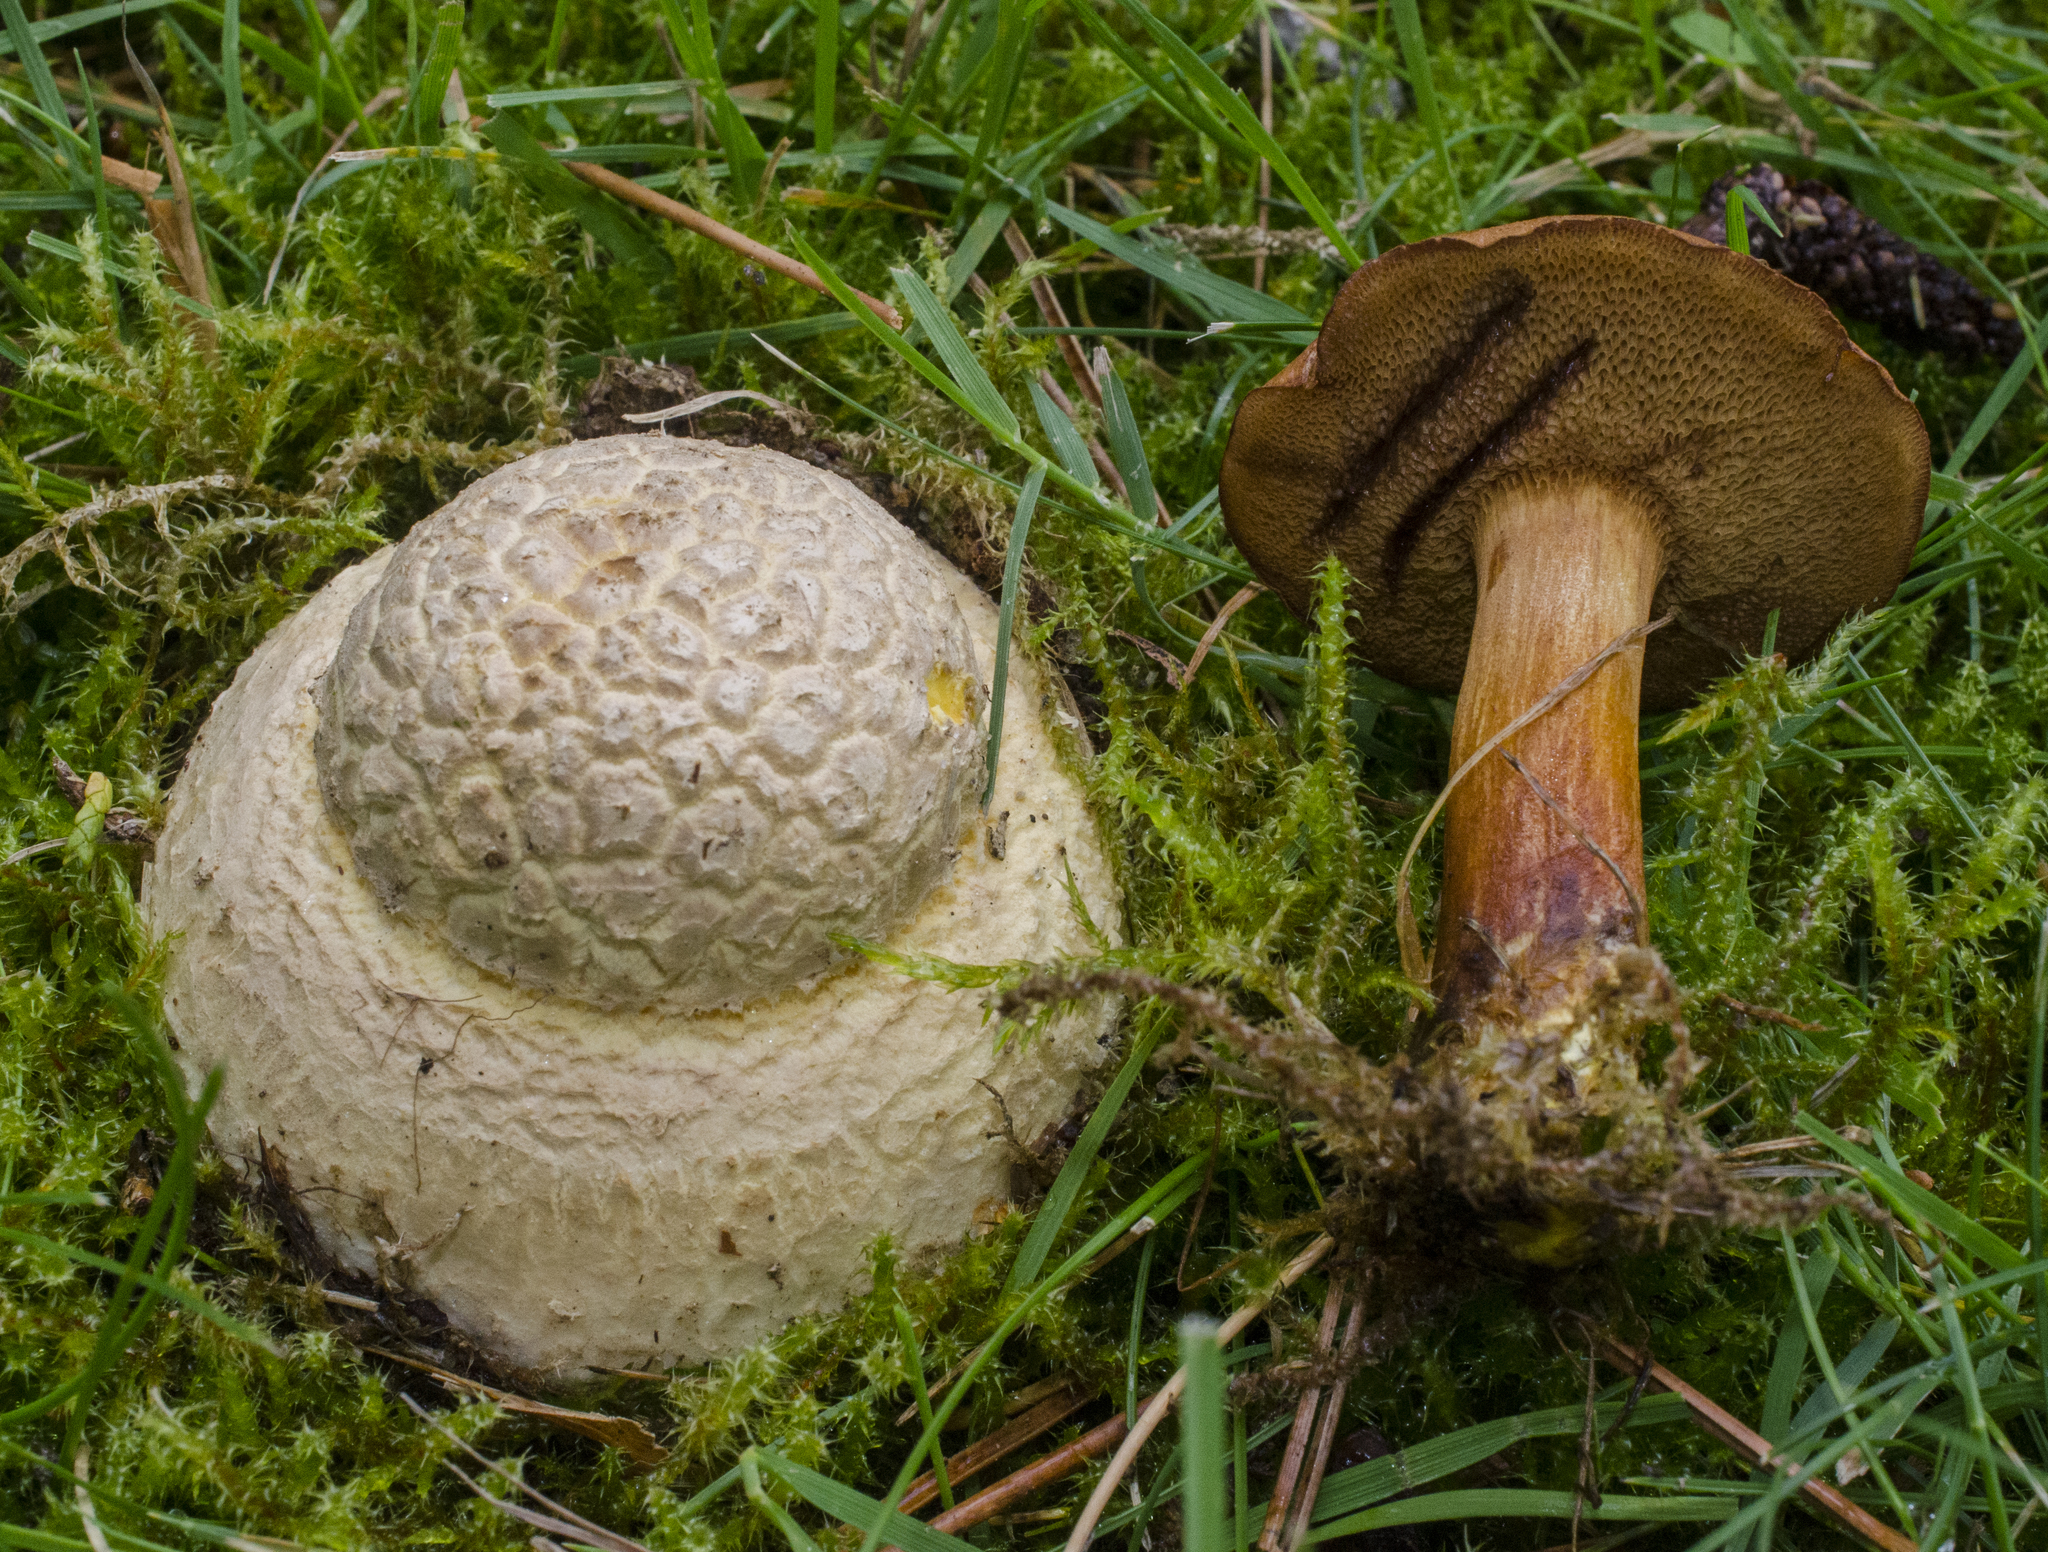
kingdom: Fungi
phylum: Basidiomycota
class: Agaricomycetes
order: Agaricales
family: Amanitaceae
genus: Amanita
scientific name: Amanita muscaria
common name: Fly agaric
